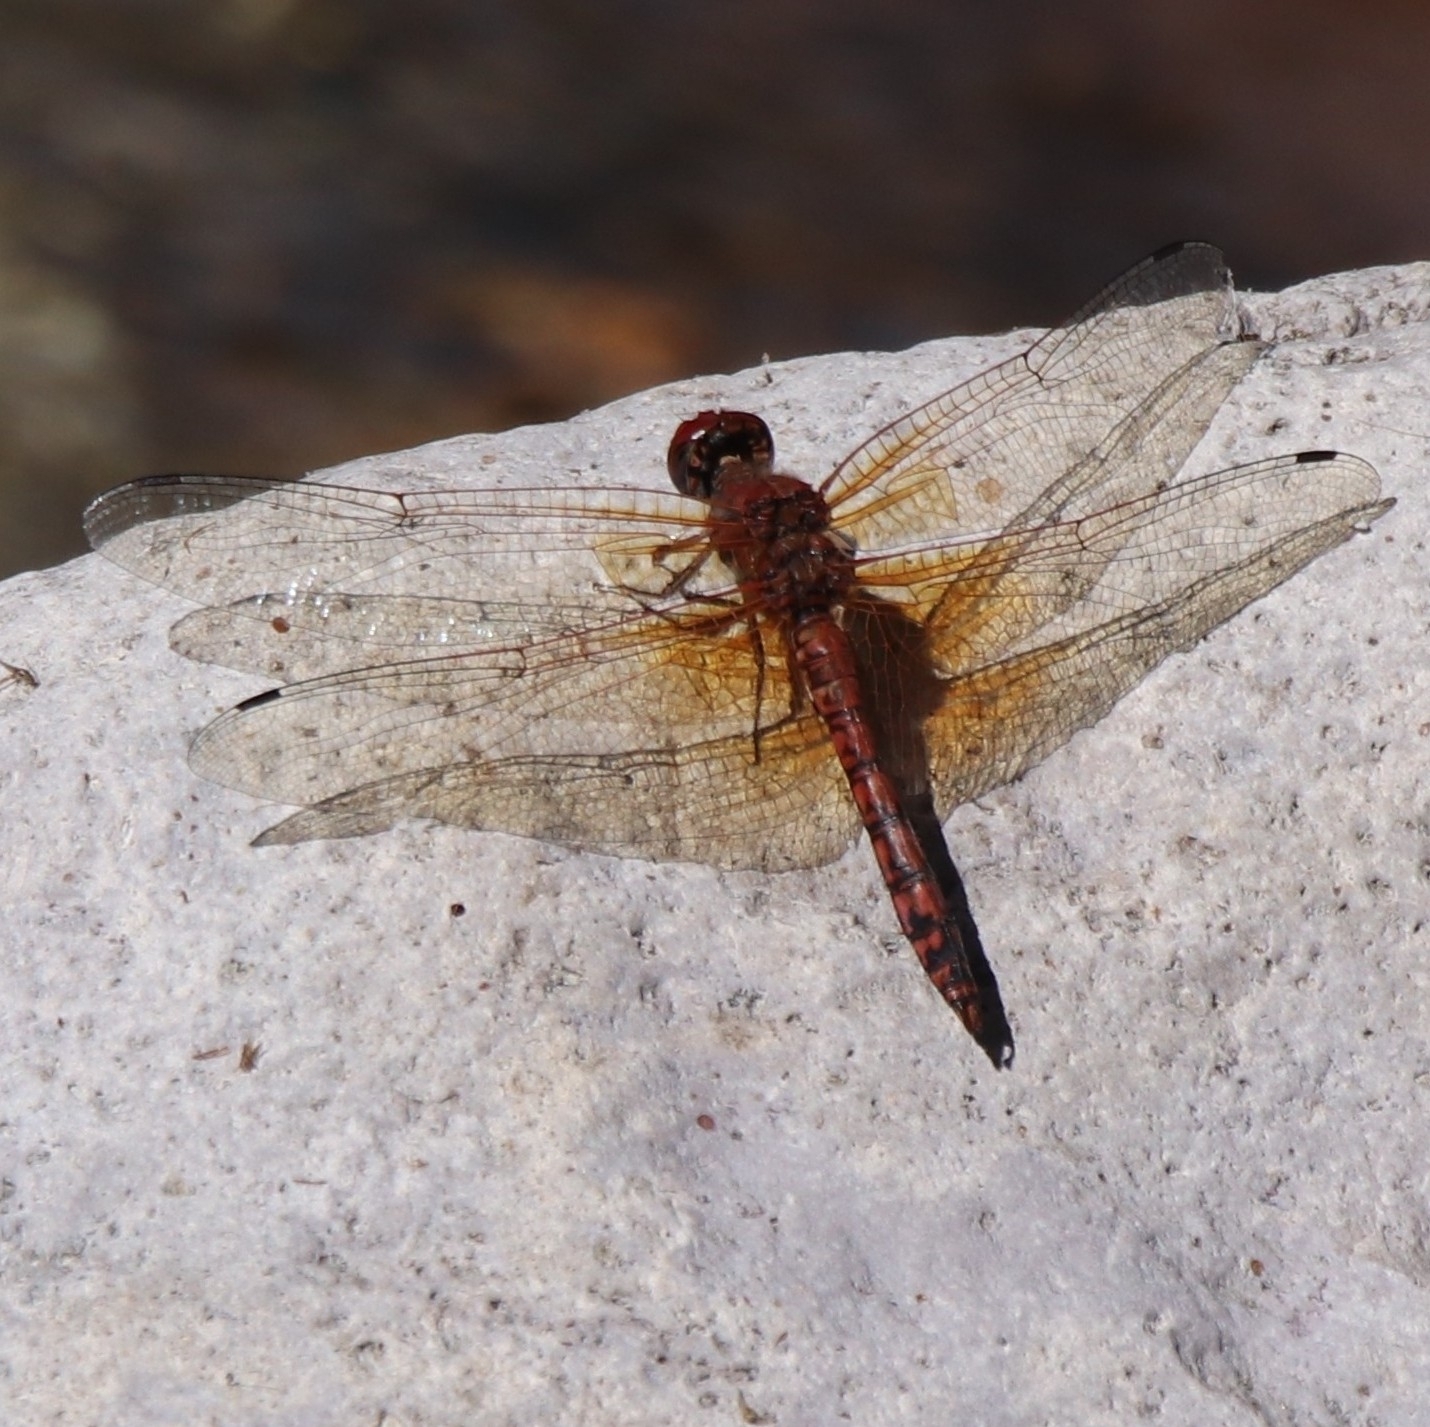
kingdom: Animalia
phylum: Arthropoda
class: Insecta
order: Odonata
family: Libellulidae
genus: Paltothemis
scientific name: Paltothemis lineatipes
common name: Red rock skimmer
